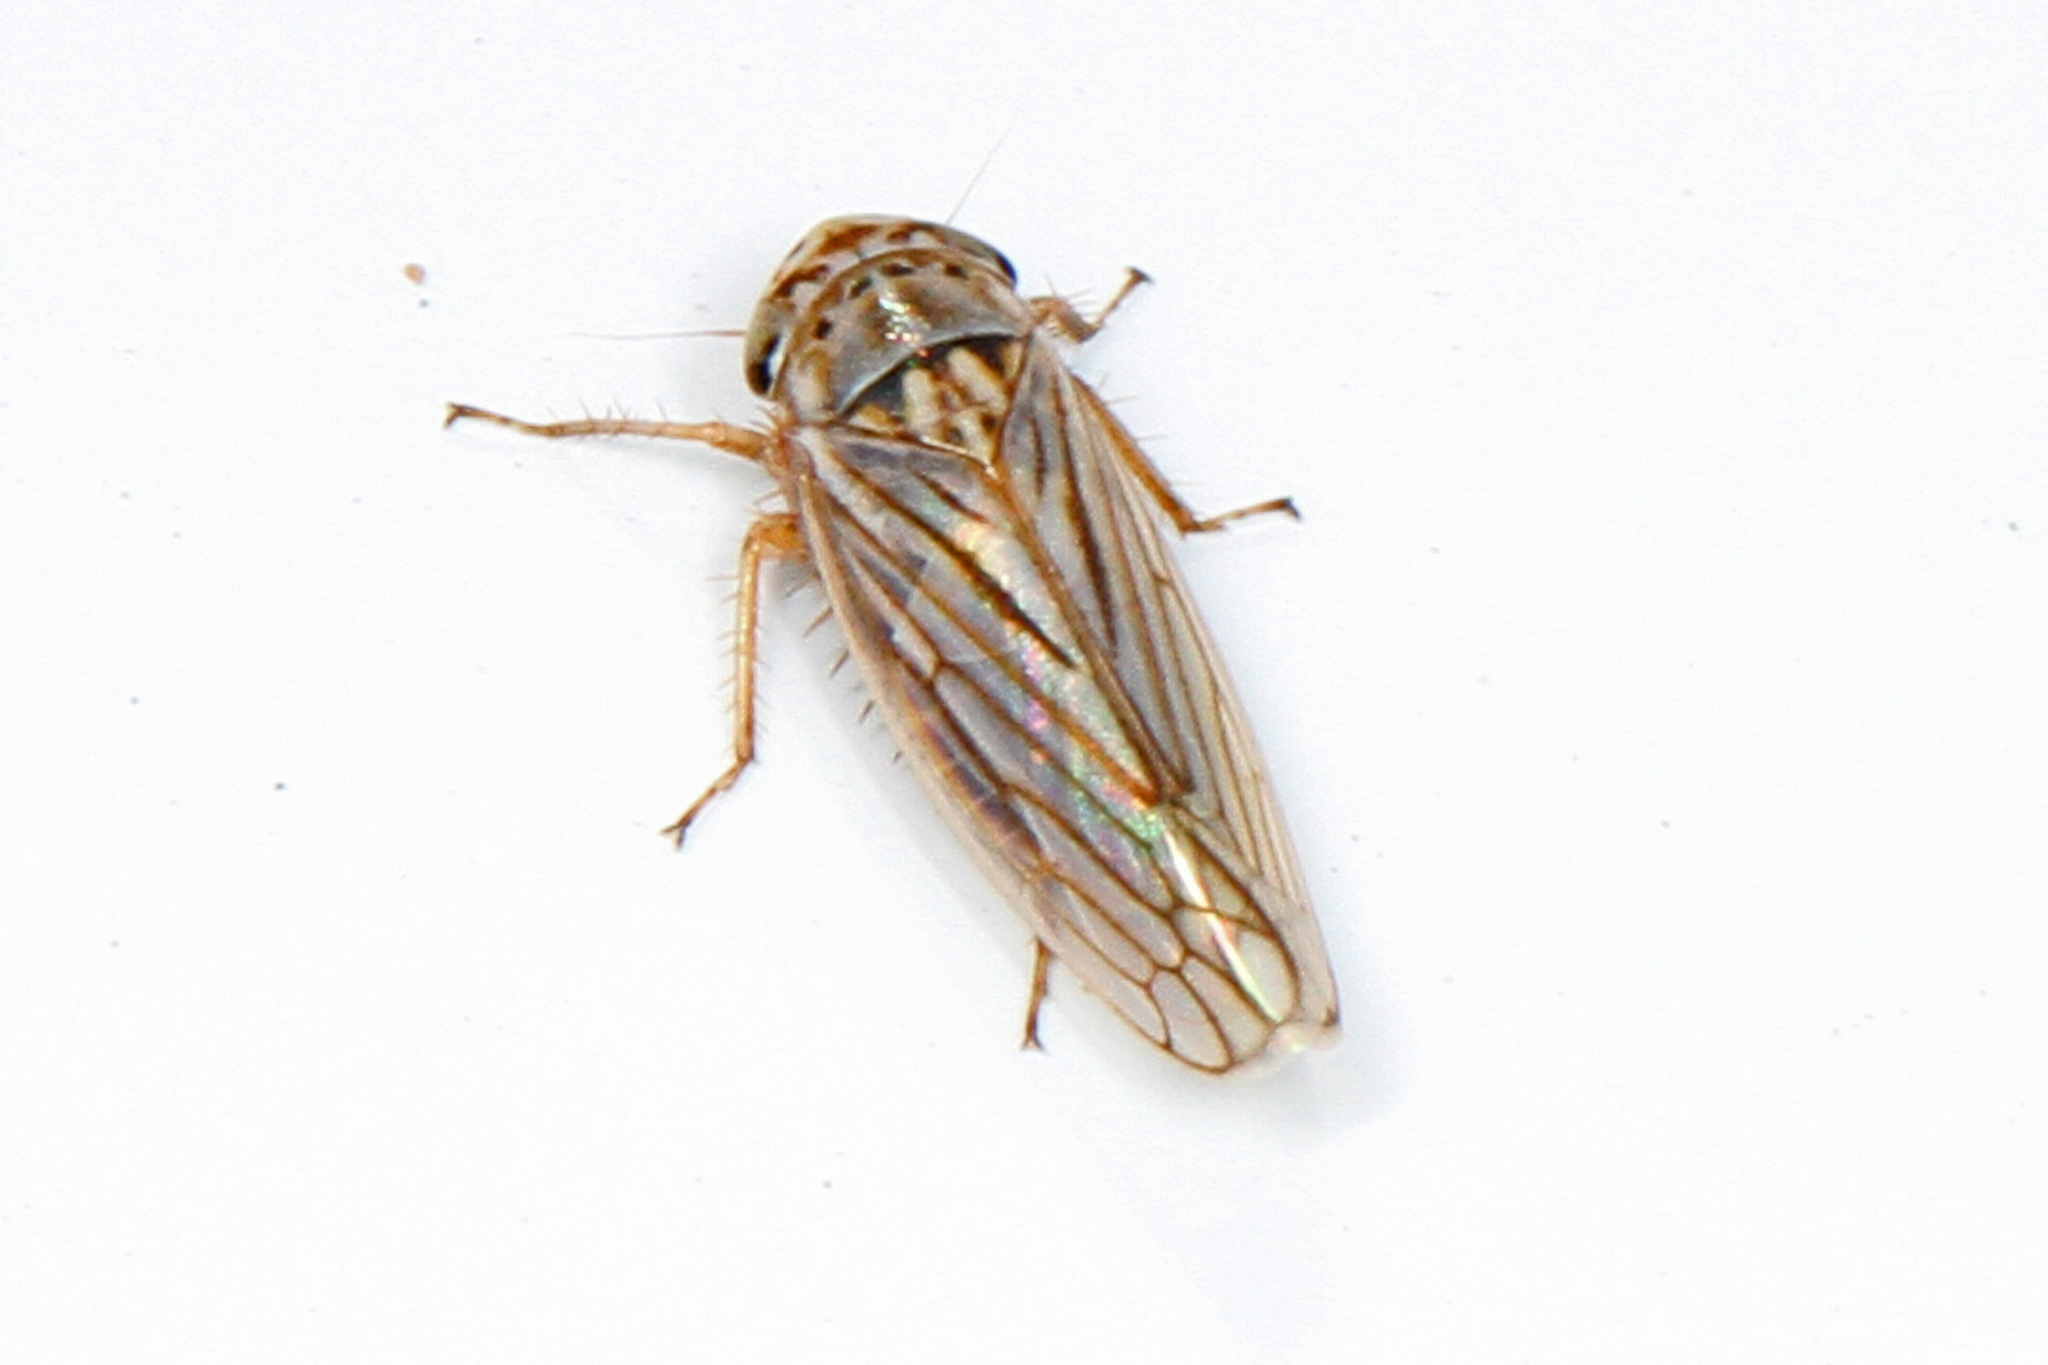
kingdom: Animalia
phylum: Arthropoda
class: Insecta
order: Hemiptera
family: Cicadellidae
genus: Exitianus
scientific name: Exitianus exitiosus
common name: Gray lawn leafhopper
